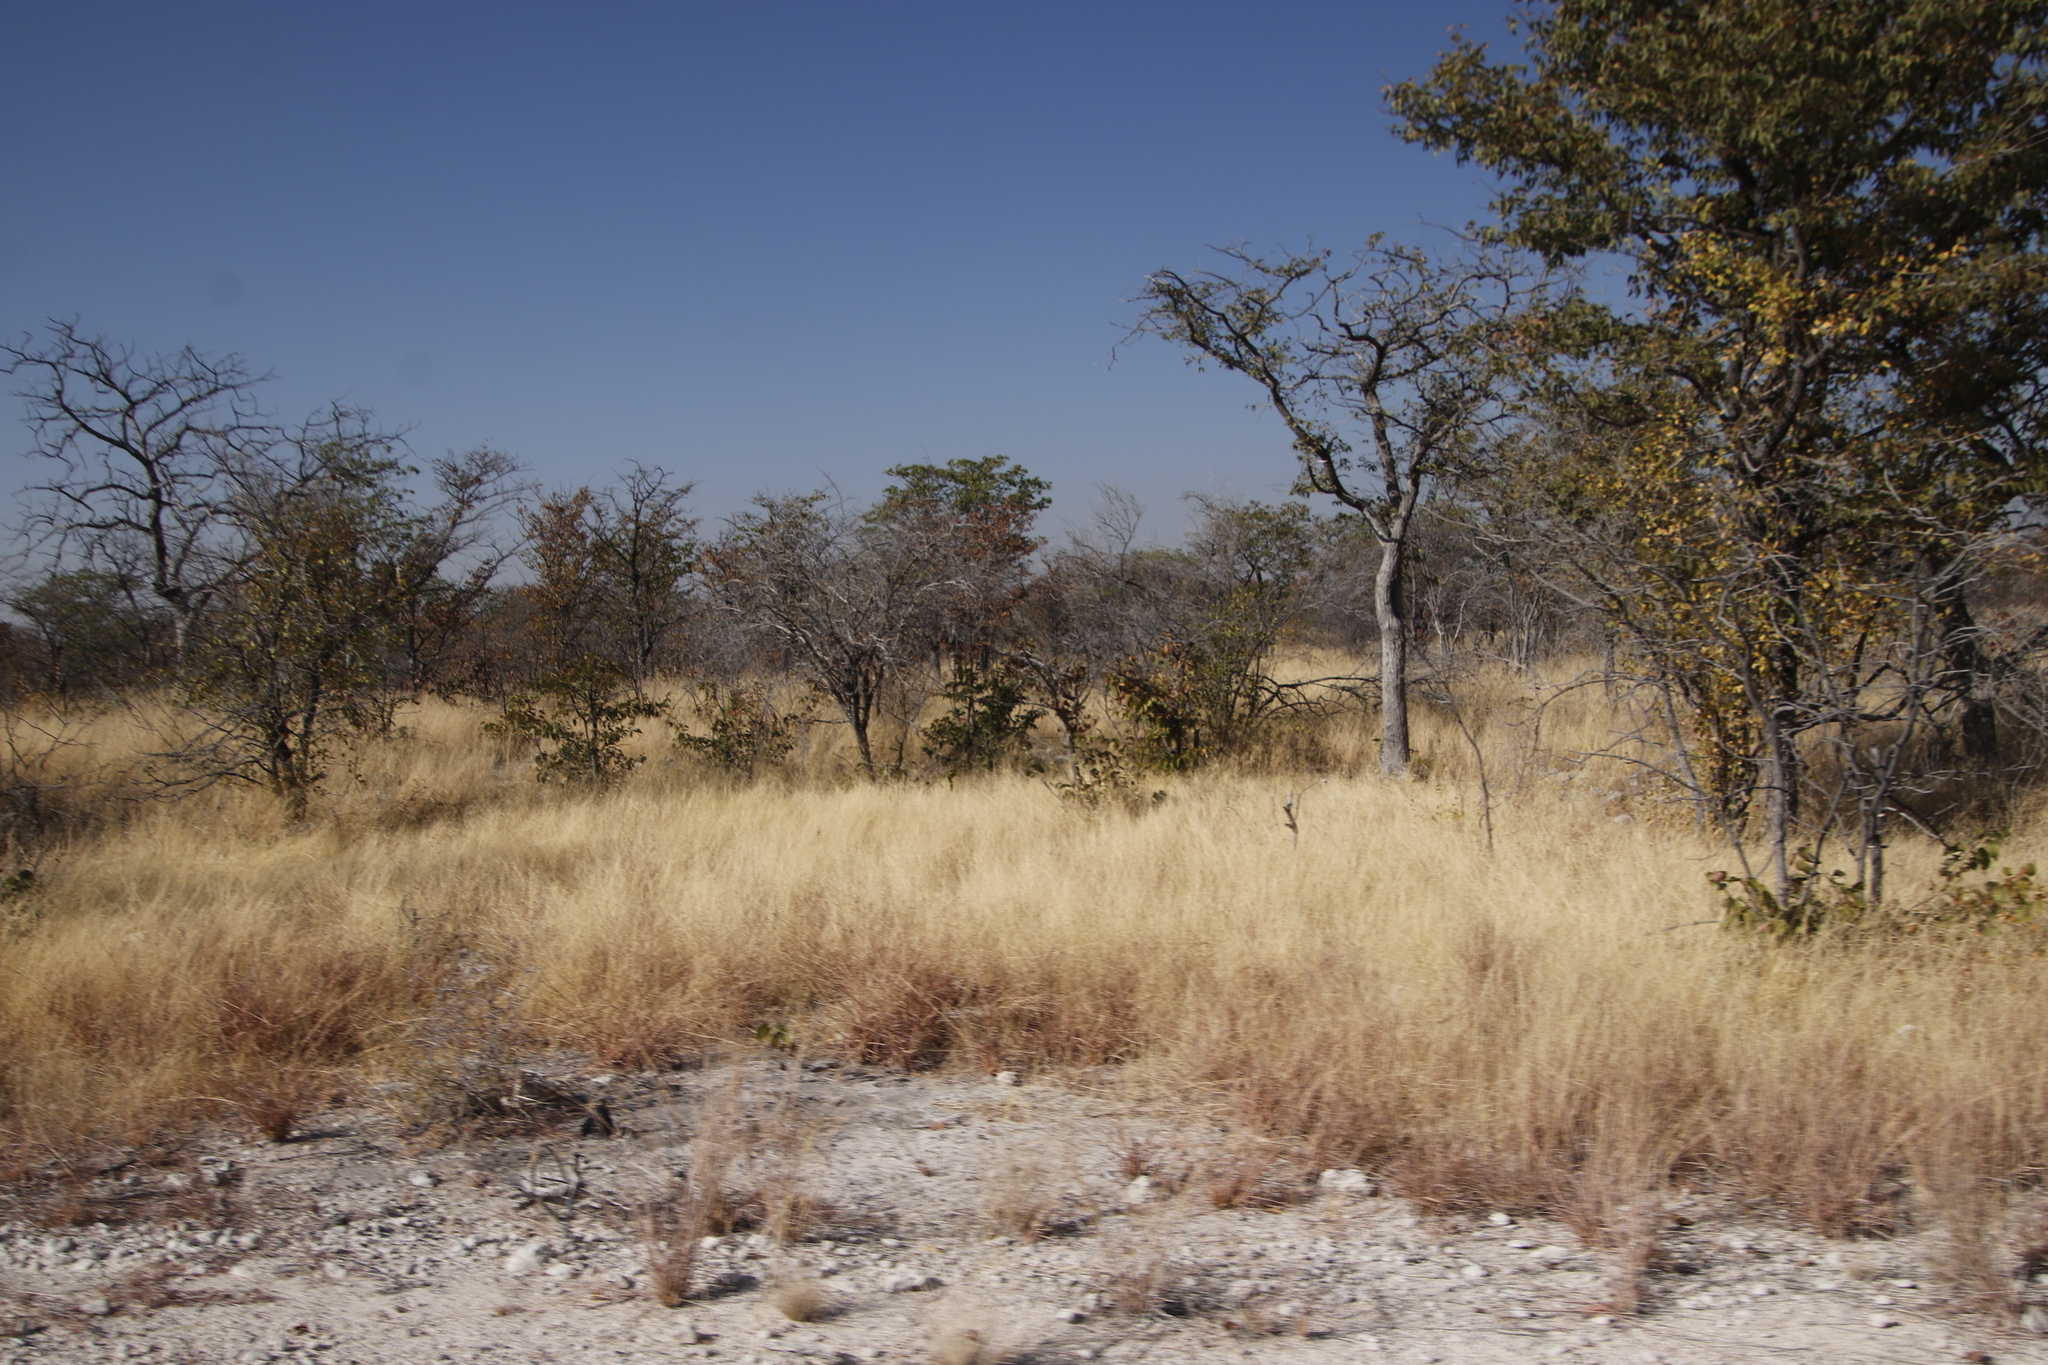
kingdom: Plantae
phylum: Tracheophyta
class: Magnoliopsida
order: Fabales
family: Fabaceae
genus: Colophospermum
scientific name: Colophospermum mopane
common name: Mopane
